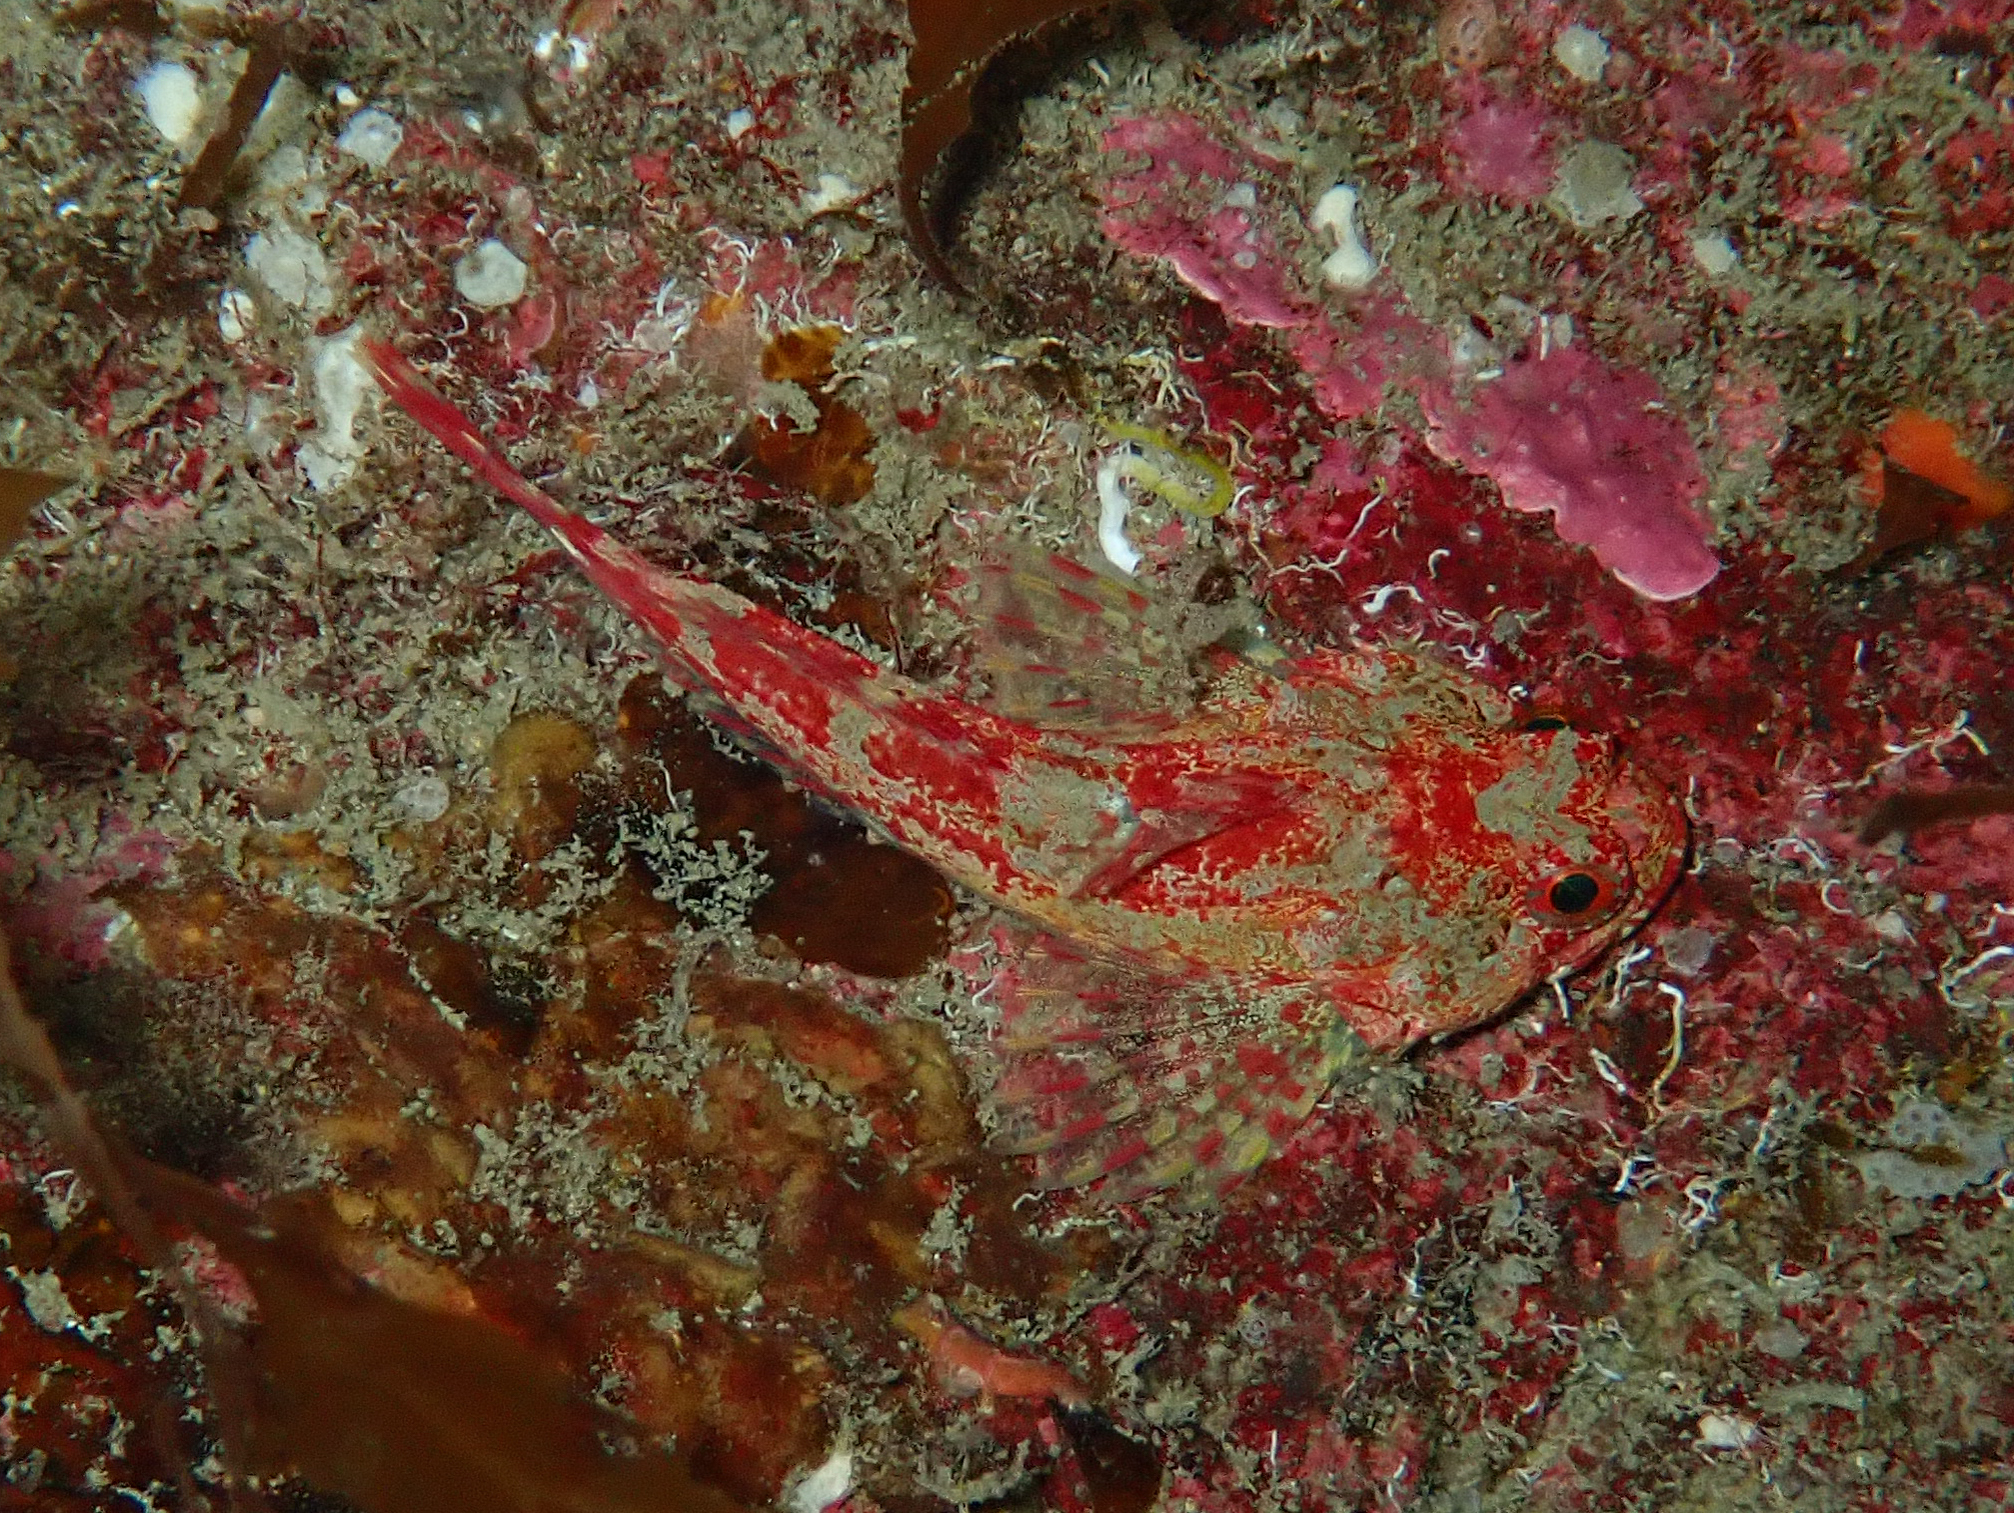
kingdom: Animalia
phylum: Chordata
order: Scorpaeniformes
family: Cottidae
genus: Taurulus
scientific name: Taurulus bubalis
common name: Sea scorpion
